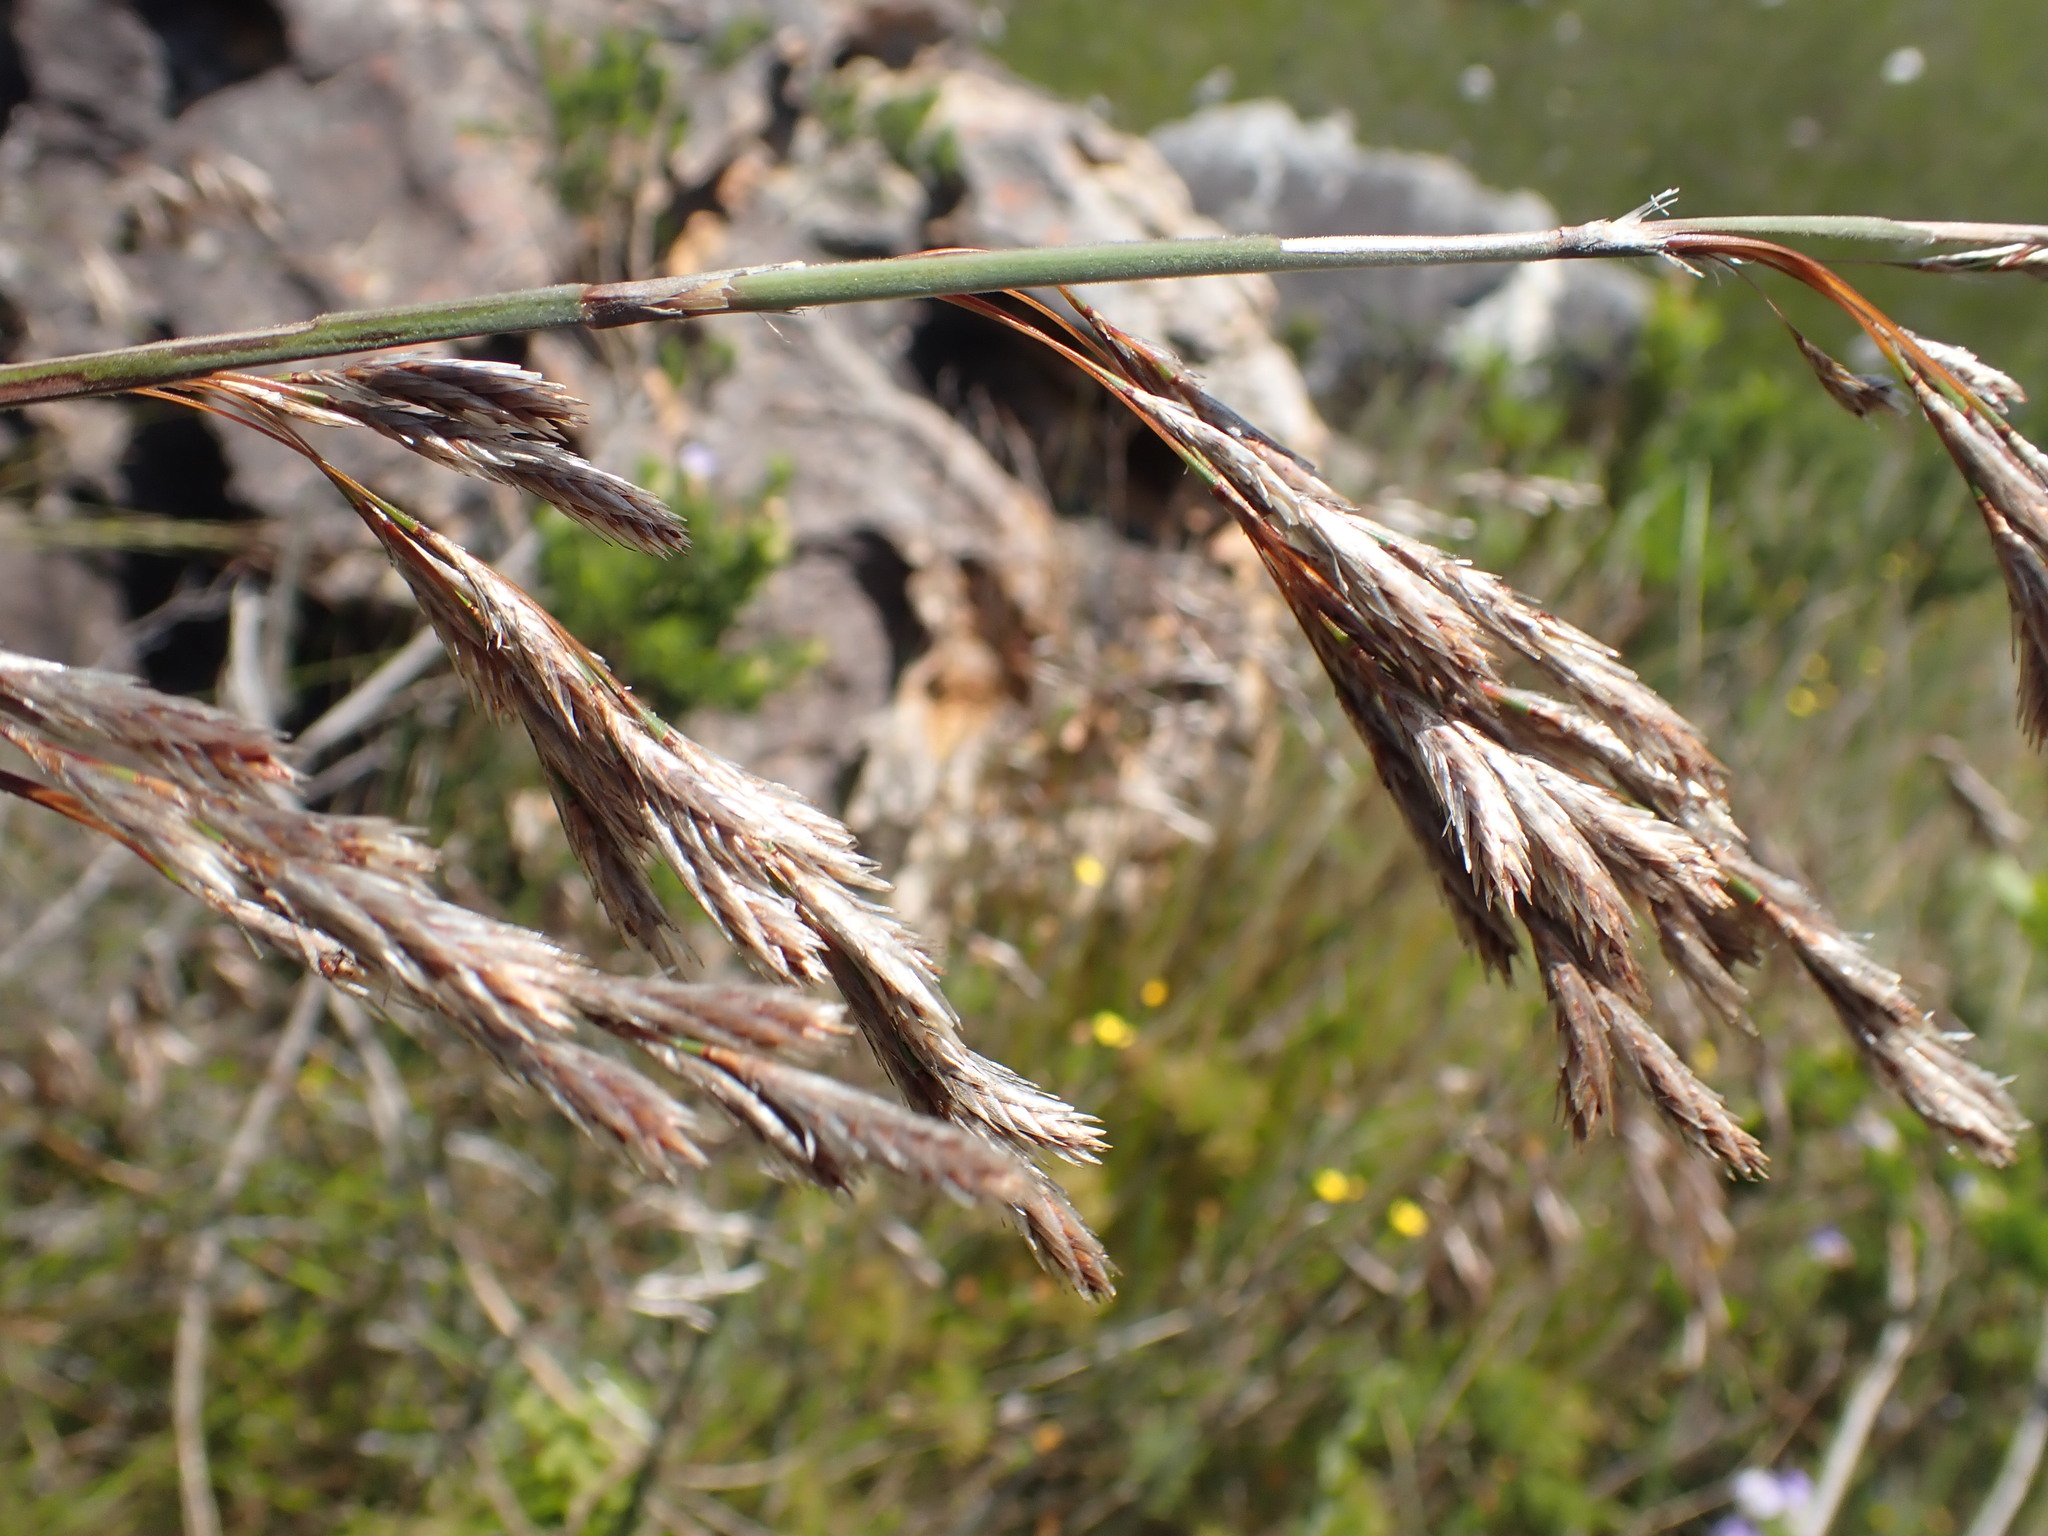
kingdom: Plantae
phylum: Tracheophyta
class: Liliopsida
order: Poales
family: Restionaceae
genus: Thamnochortus
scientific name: Thamnochortus cinereus
